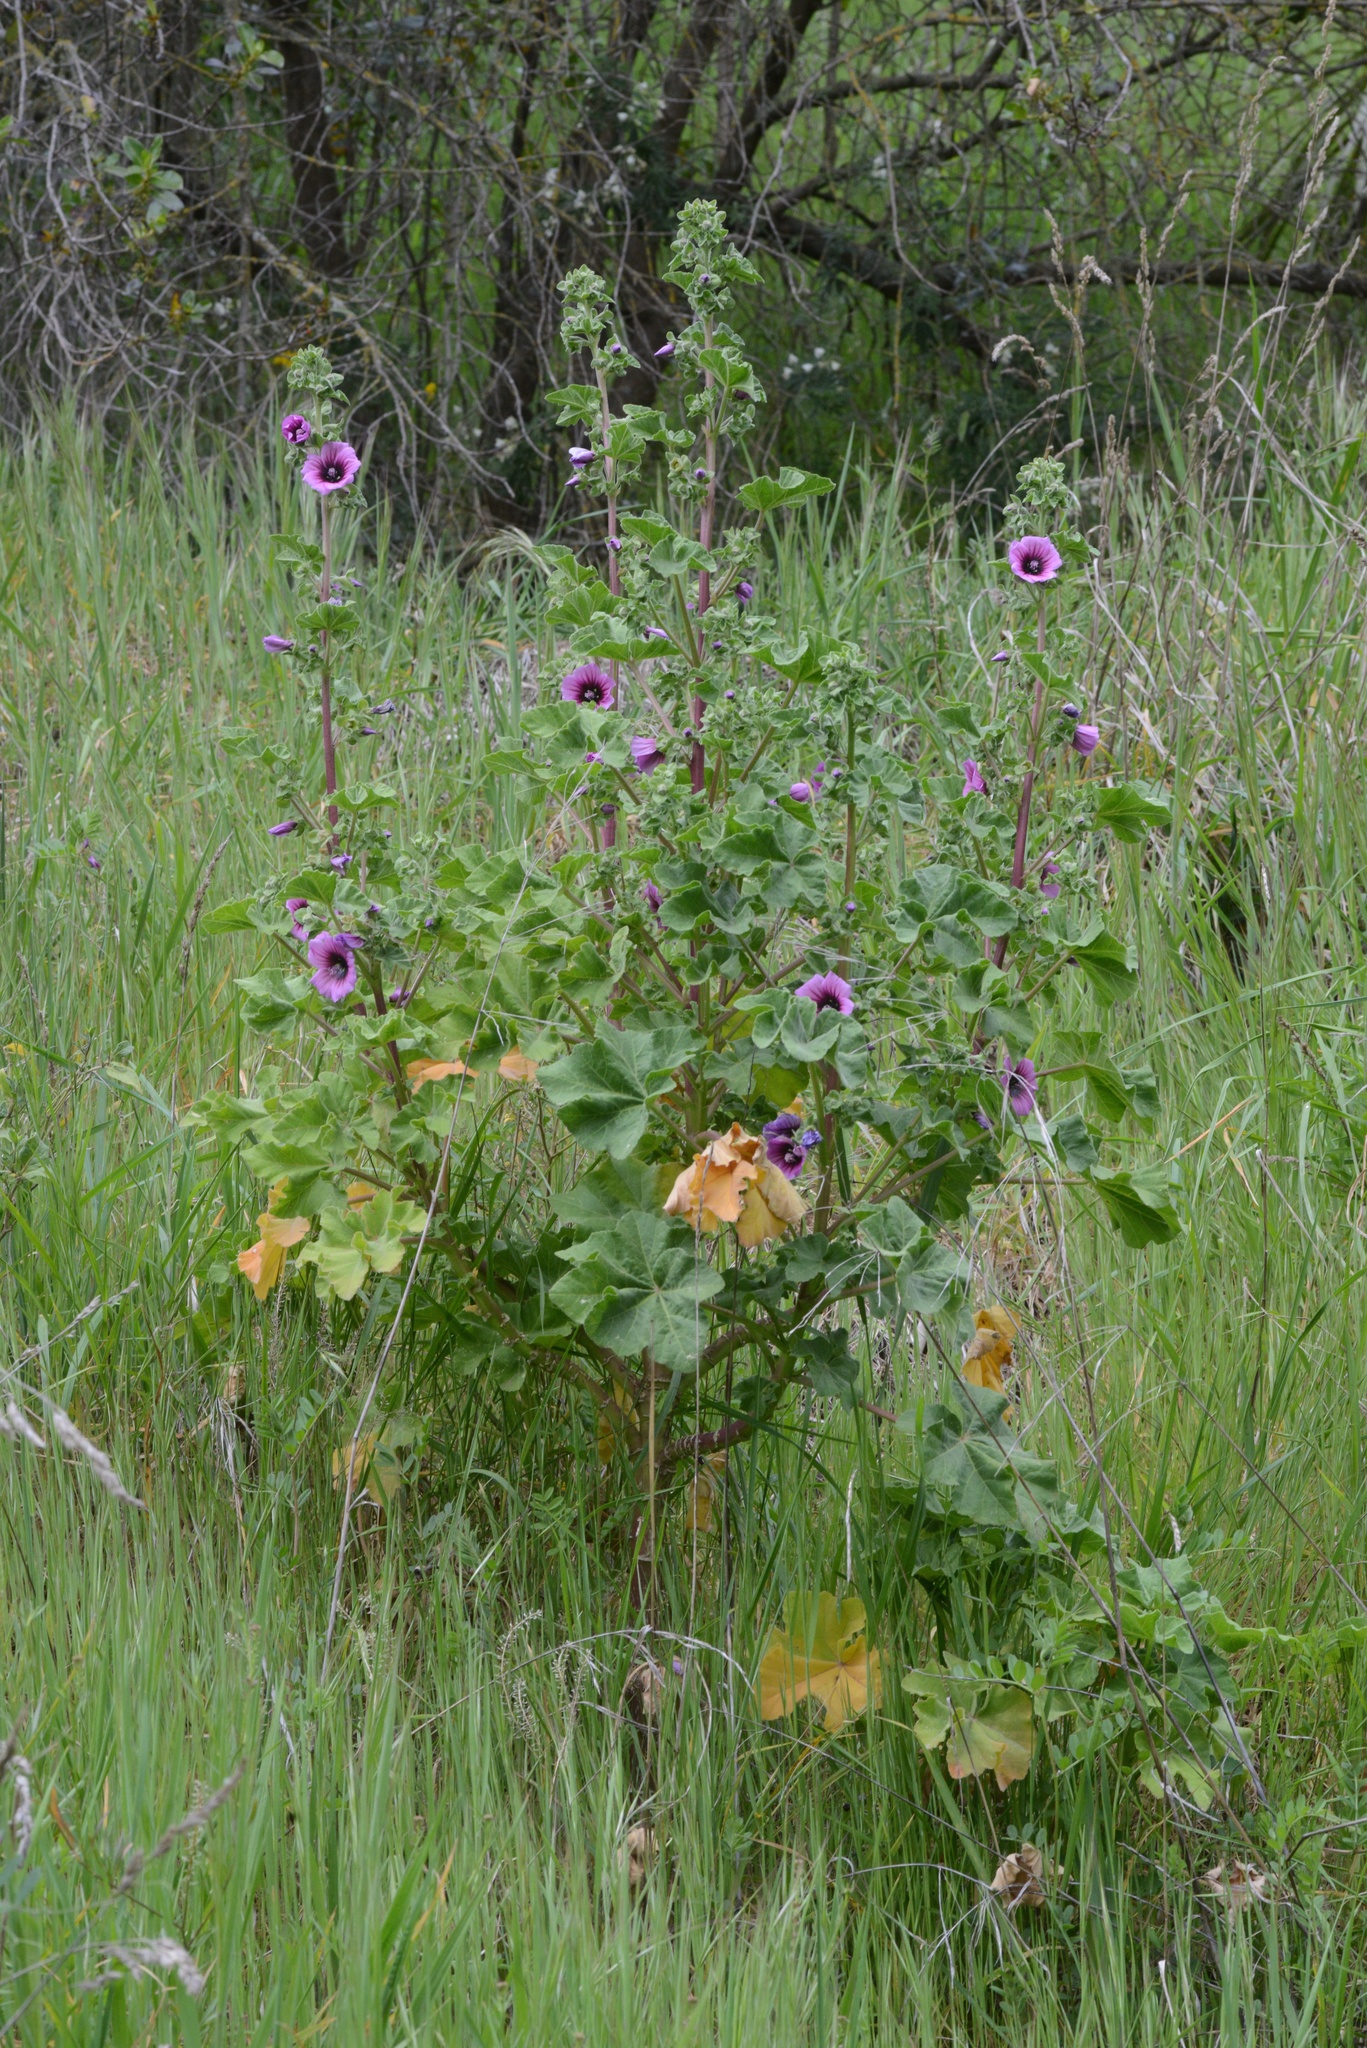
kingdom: Plantae
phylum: Tracheophyta
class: Magnoliopsida
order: Malvales
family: Malvaceae
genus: Malva
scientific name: Malva arborea
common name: Tree mallow
